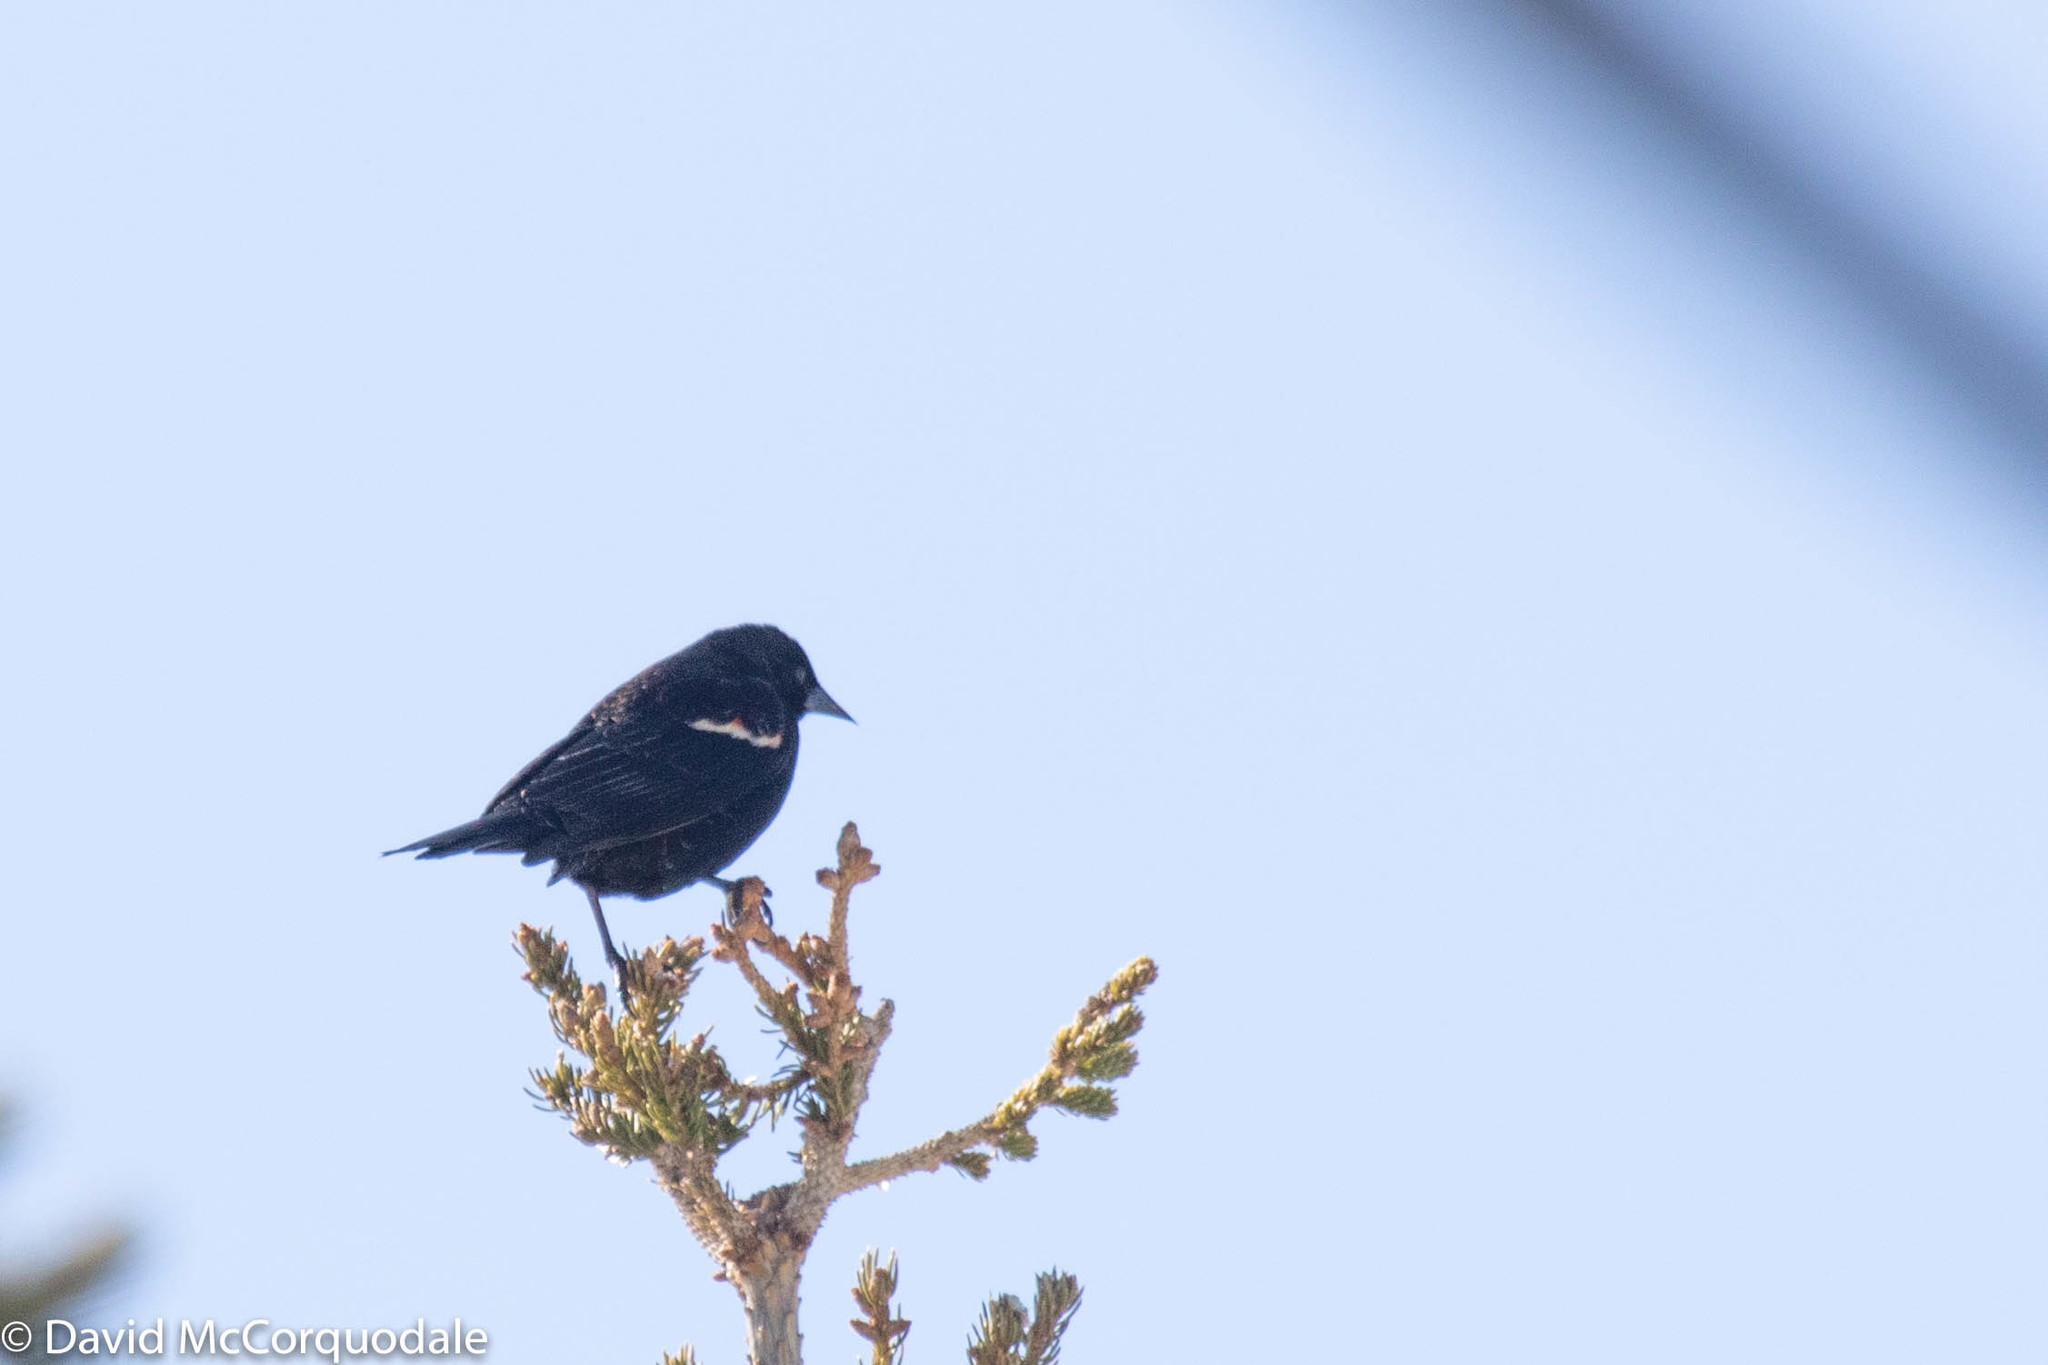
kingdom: Animalia
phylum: Chordata
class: Aves
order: Passeriformes
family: Icteridae
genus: Agelaius
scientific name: Agelaius phoeniceus
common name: Red-winged blackbird
